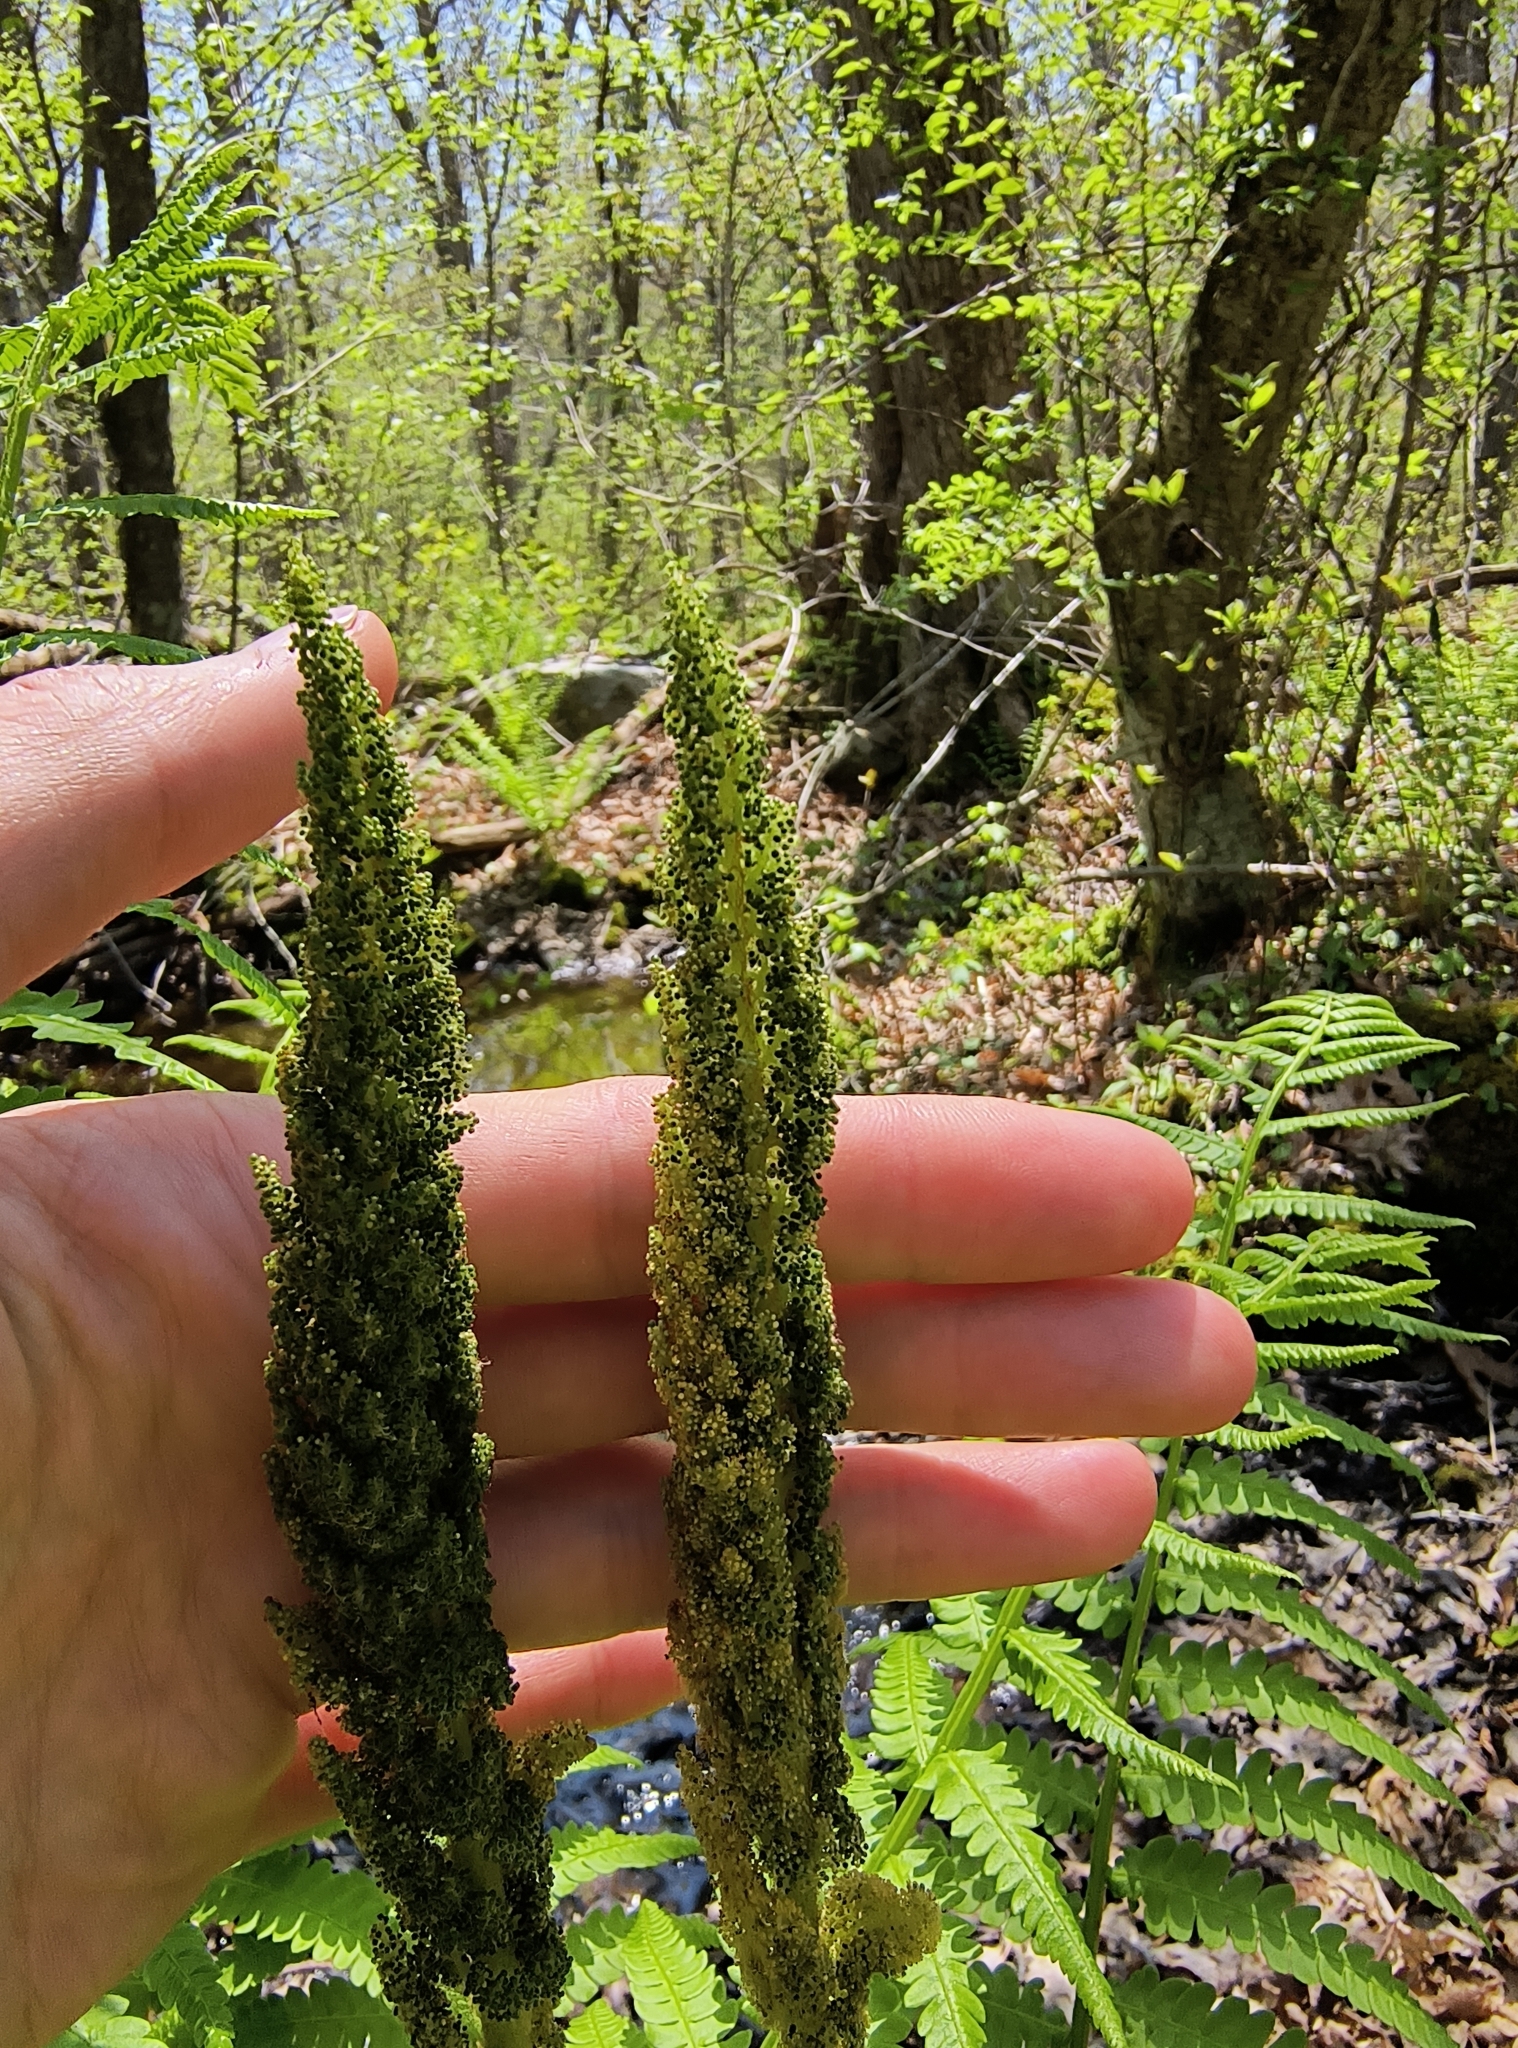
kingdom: Plantae
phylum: Tracheophyta
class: Polypodiopsida
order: Osmundales
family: Osmundaceae
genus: Osmundastrum
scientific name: Osmundastrum cinnamomeum
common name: Cinnamon fern
